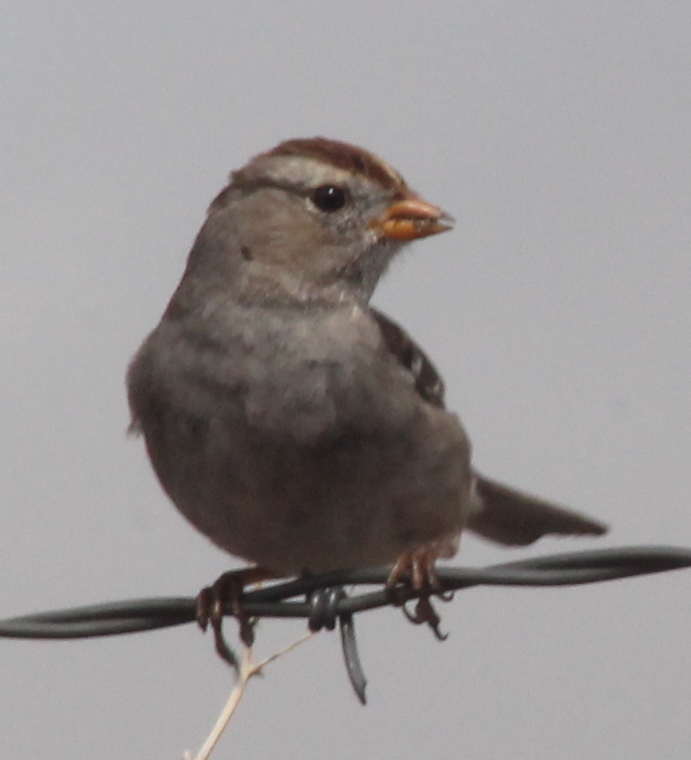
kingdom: Animalia
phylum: Chordata
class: Aves
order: Passeriformes
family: Passerellidae
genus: Zonotrichia
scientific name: Zonotrichia leucophrys
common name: White-crowned sparrow
